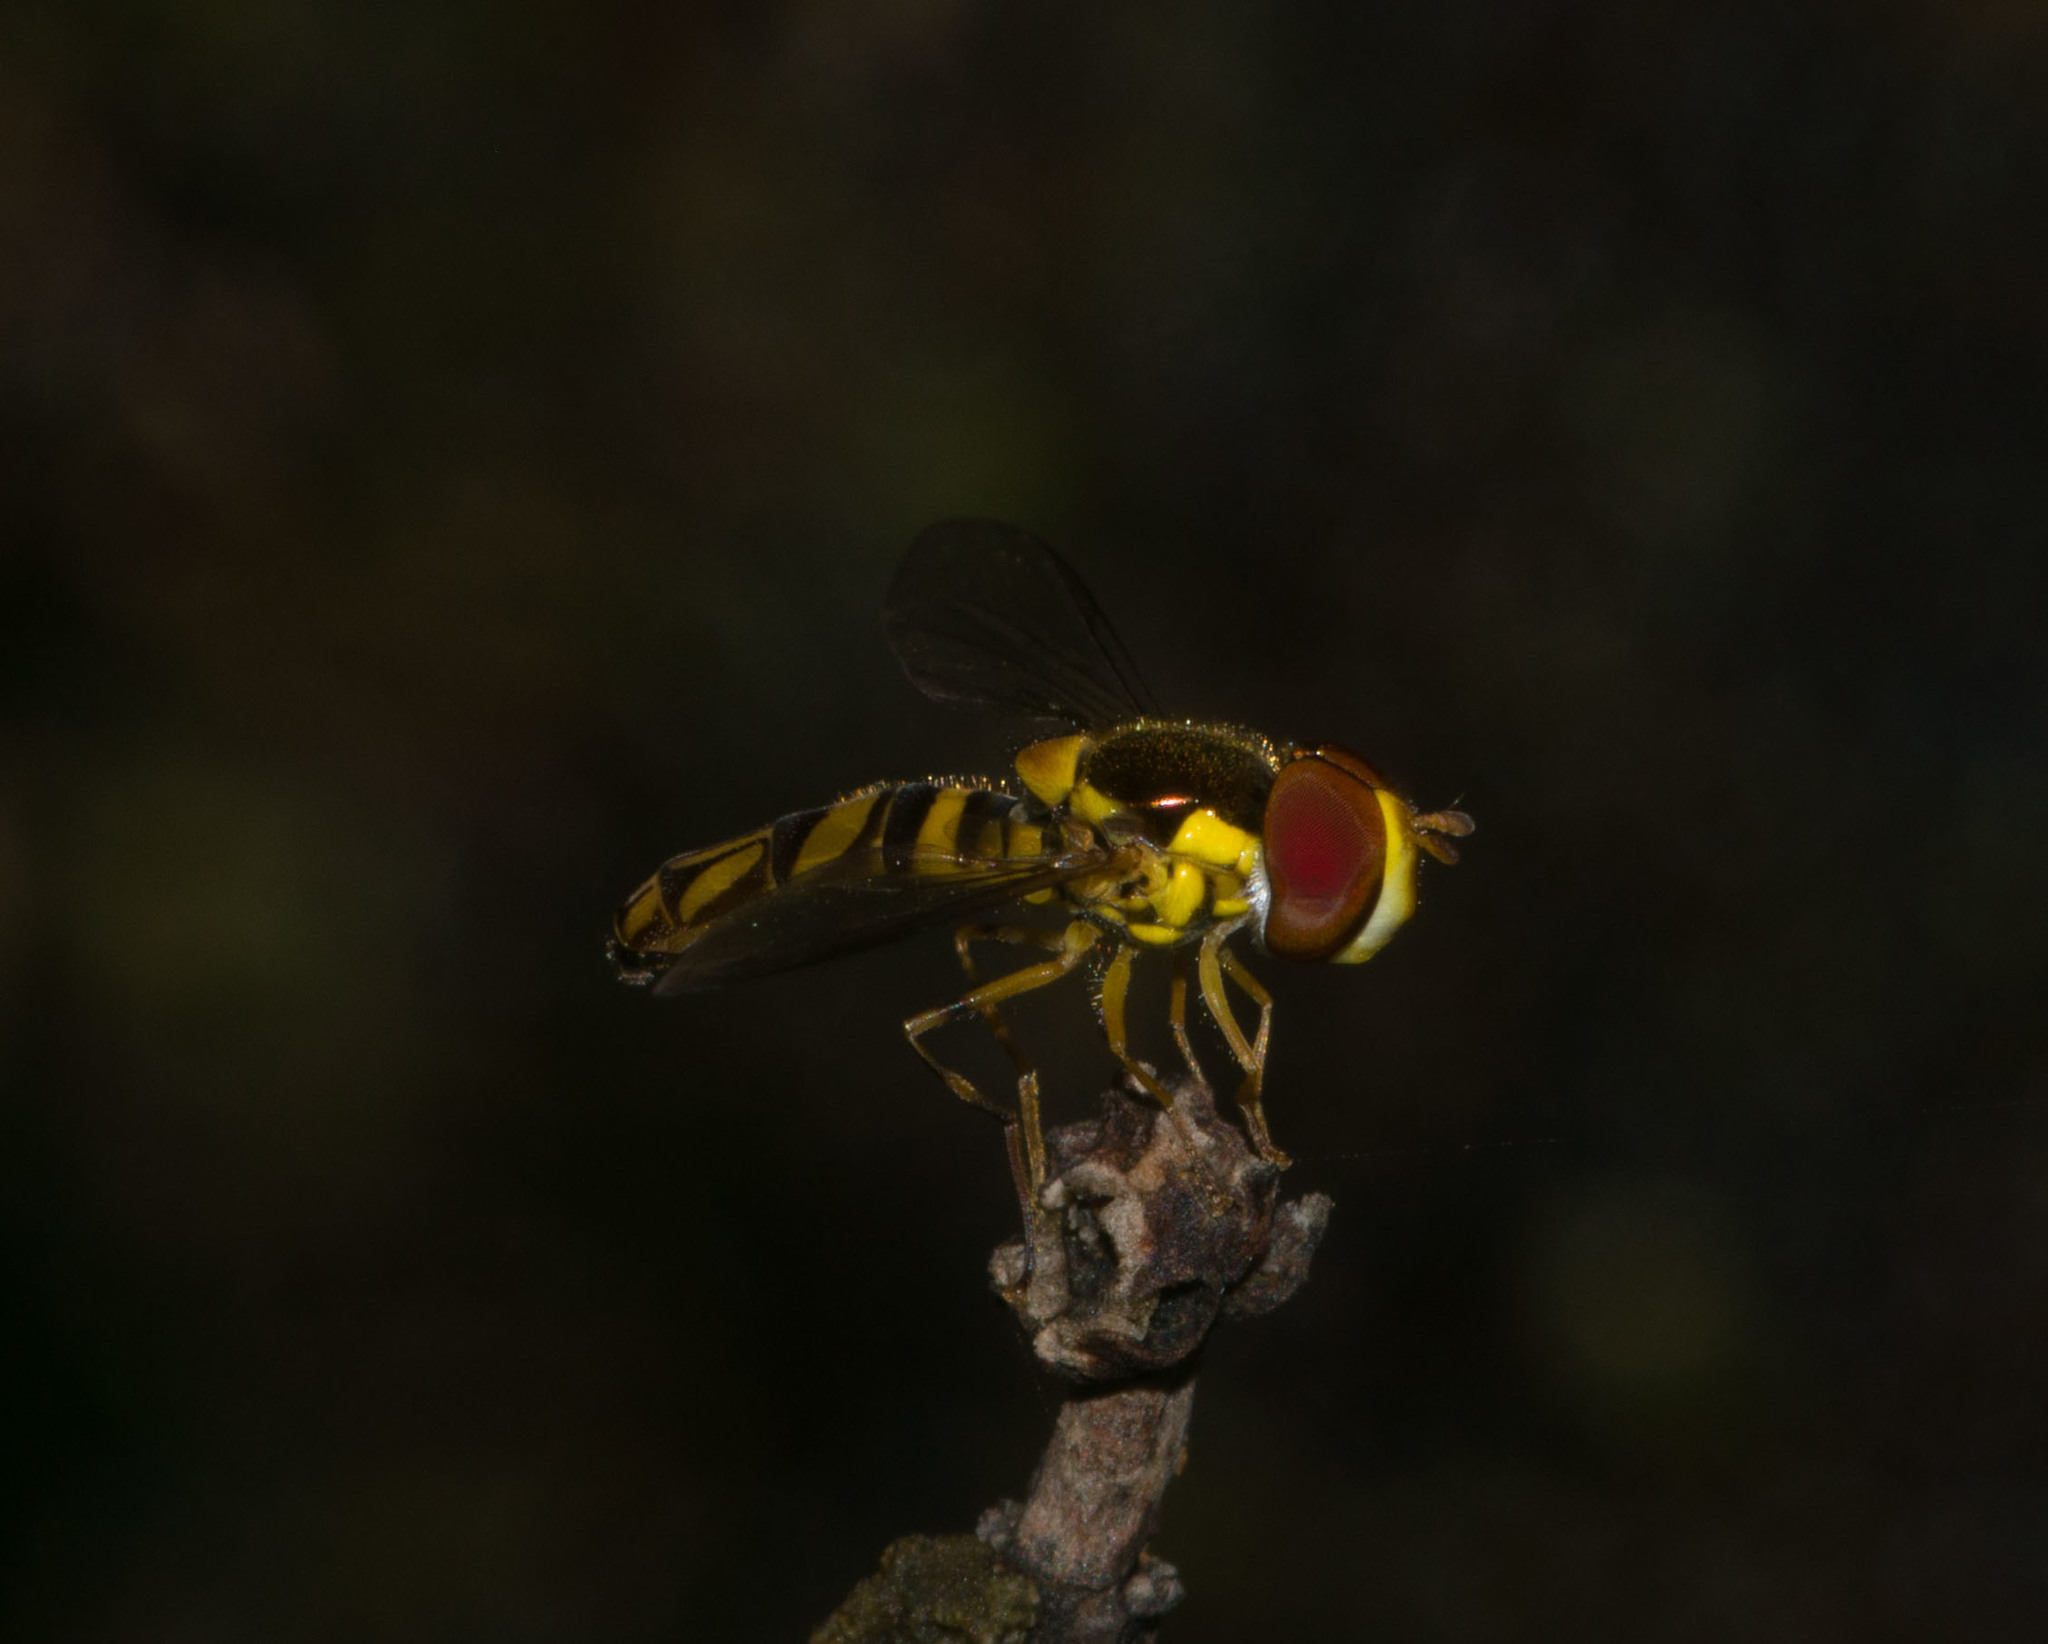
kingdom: Animalia
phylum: Arthropoda
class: Insecta
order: Diptera
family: Syrphidae
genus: Allograpta
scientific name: Allograpta obliqua
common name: Common oblique syrphid
